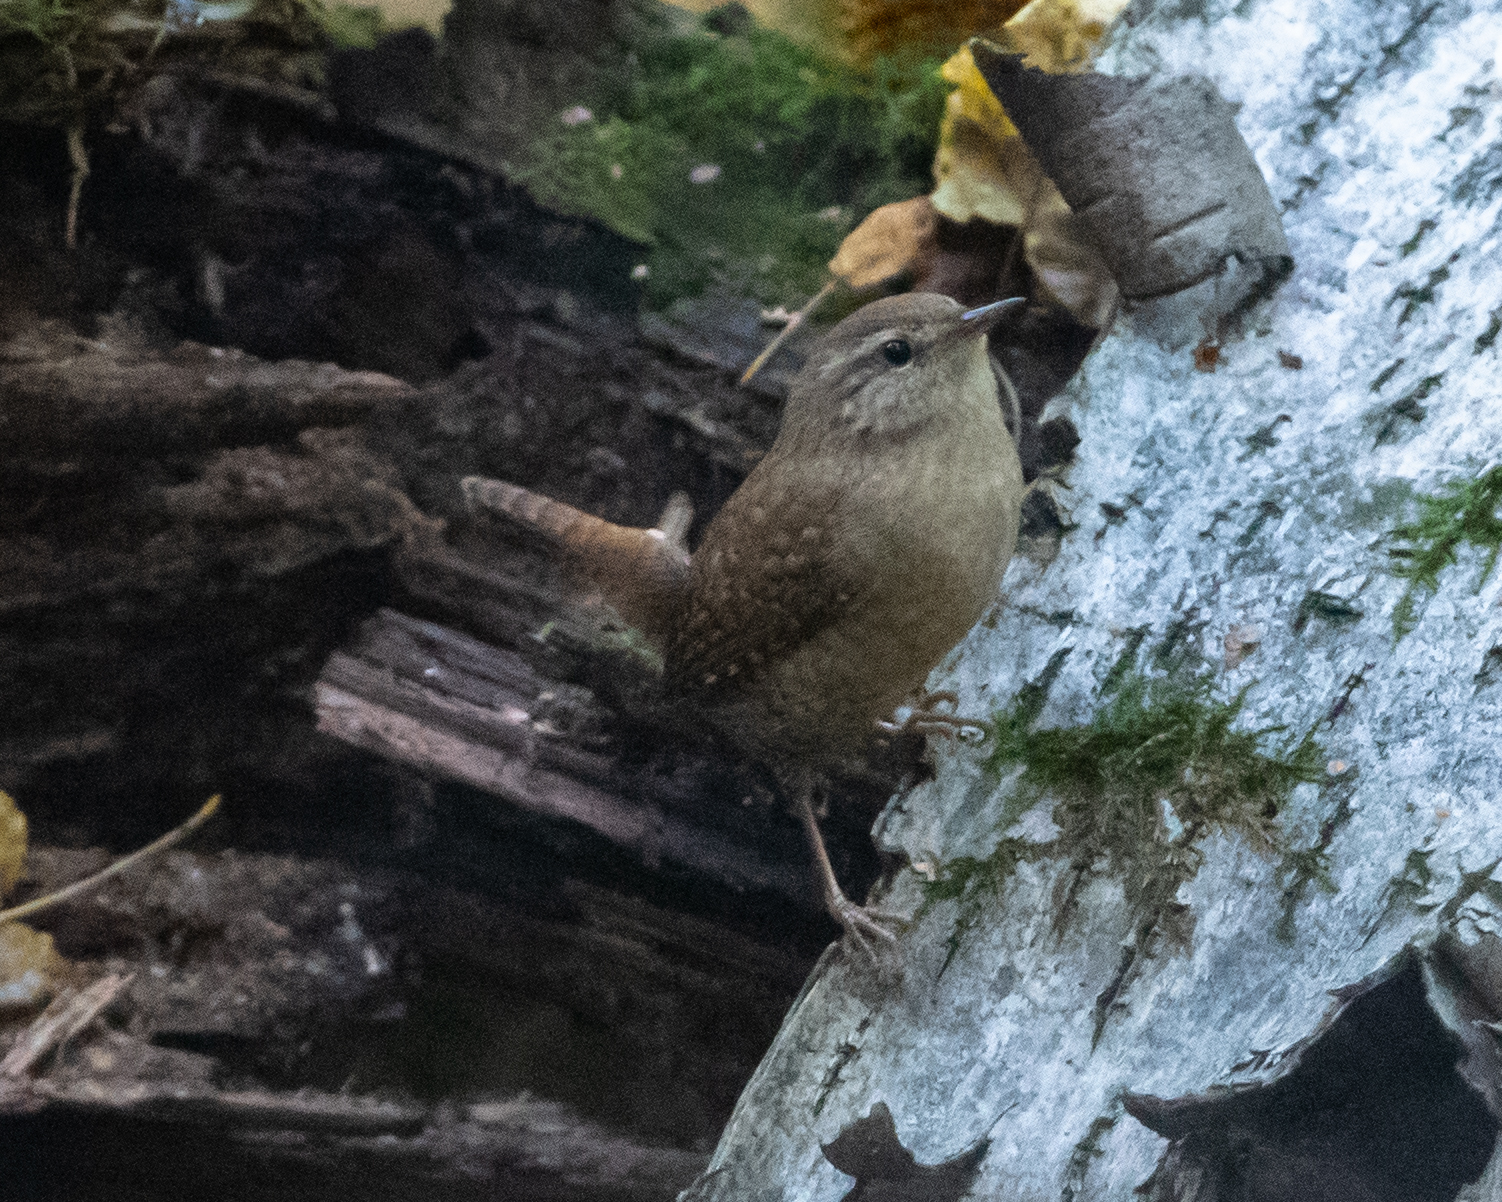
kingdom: Animalia
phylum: Chordata
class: Aves
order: Passeriformes
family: Troglodytidae
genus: Troglodytes
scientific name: Troglodytes troglodytes
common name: Eurasian wren
